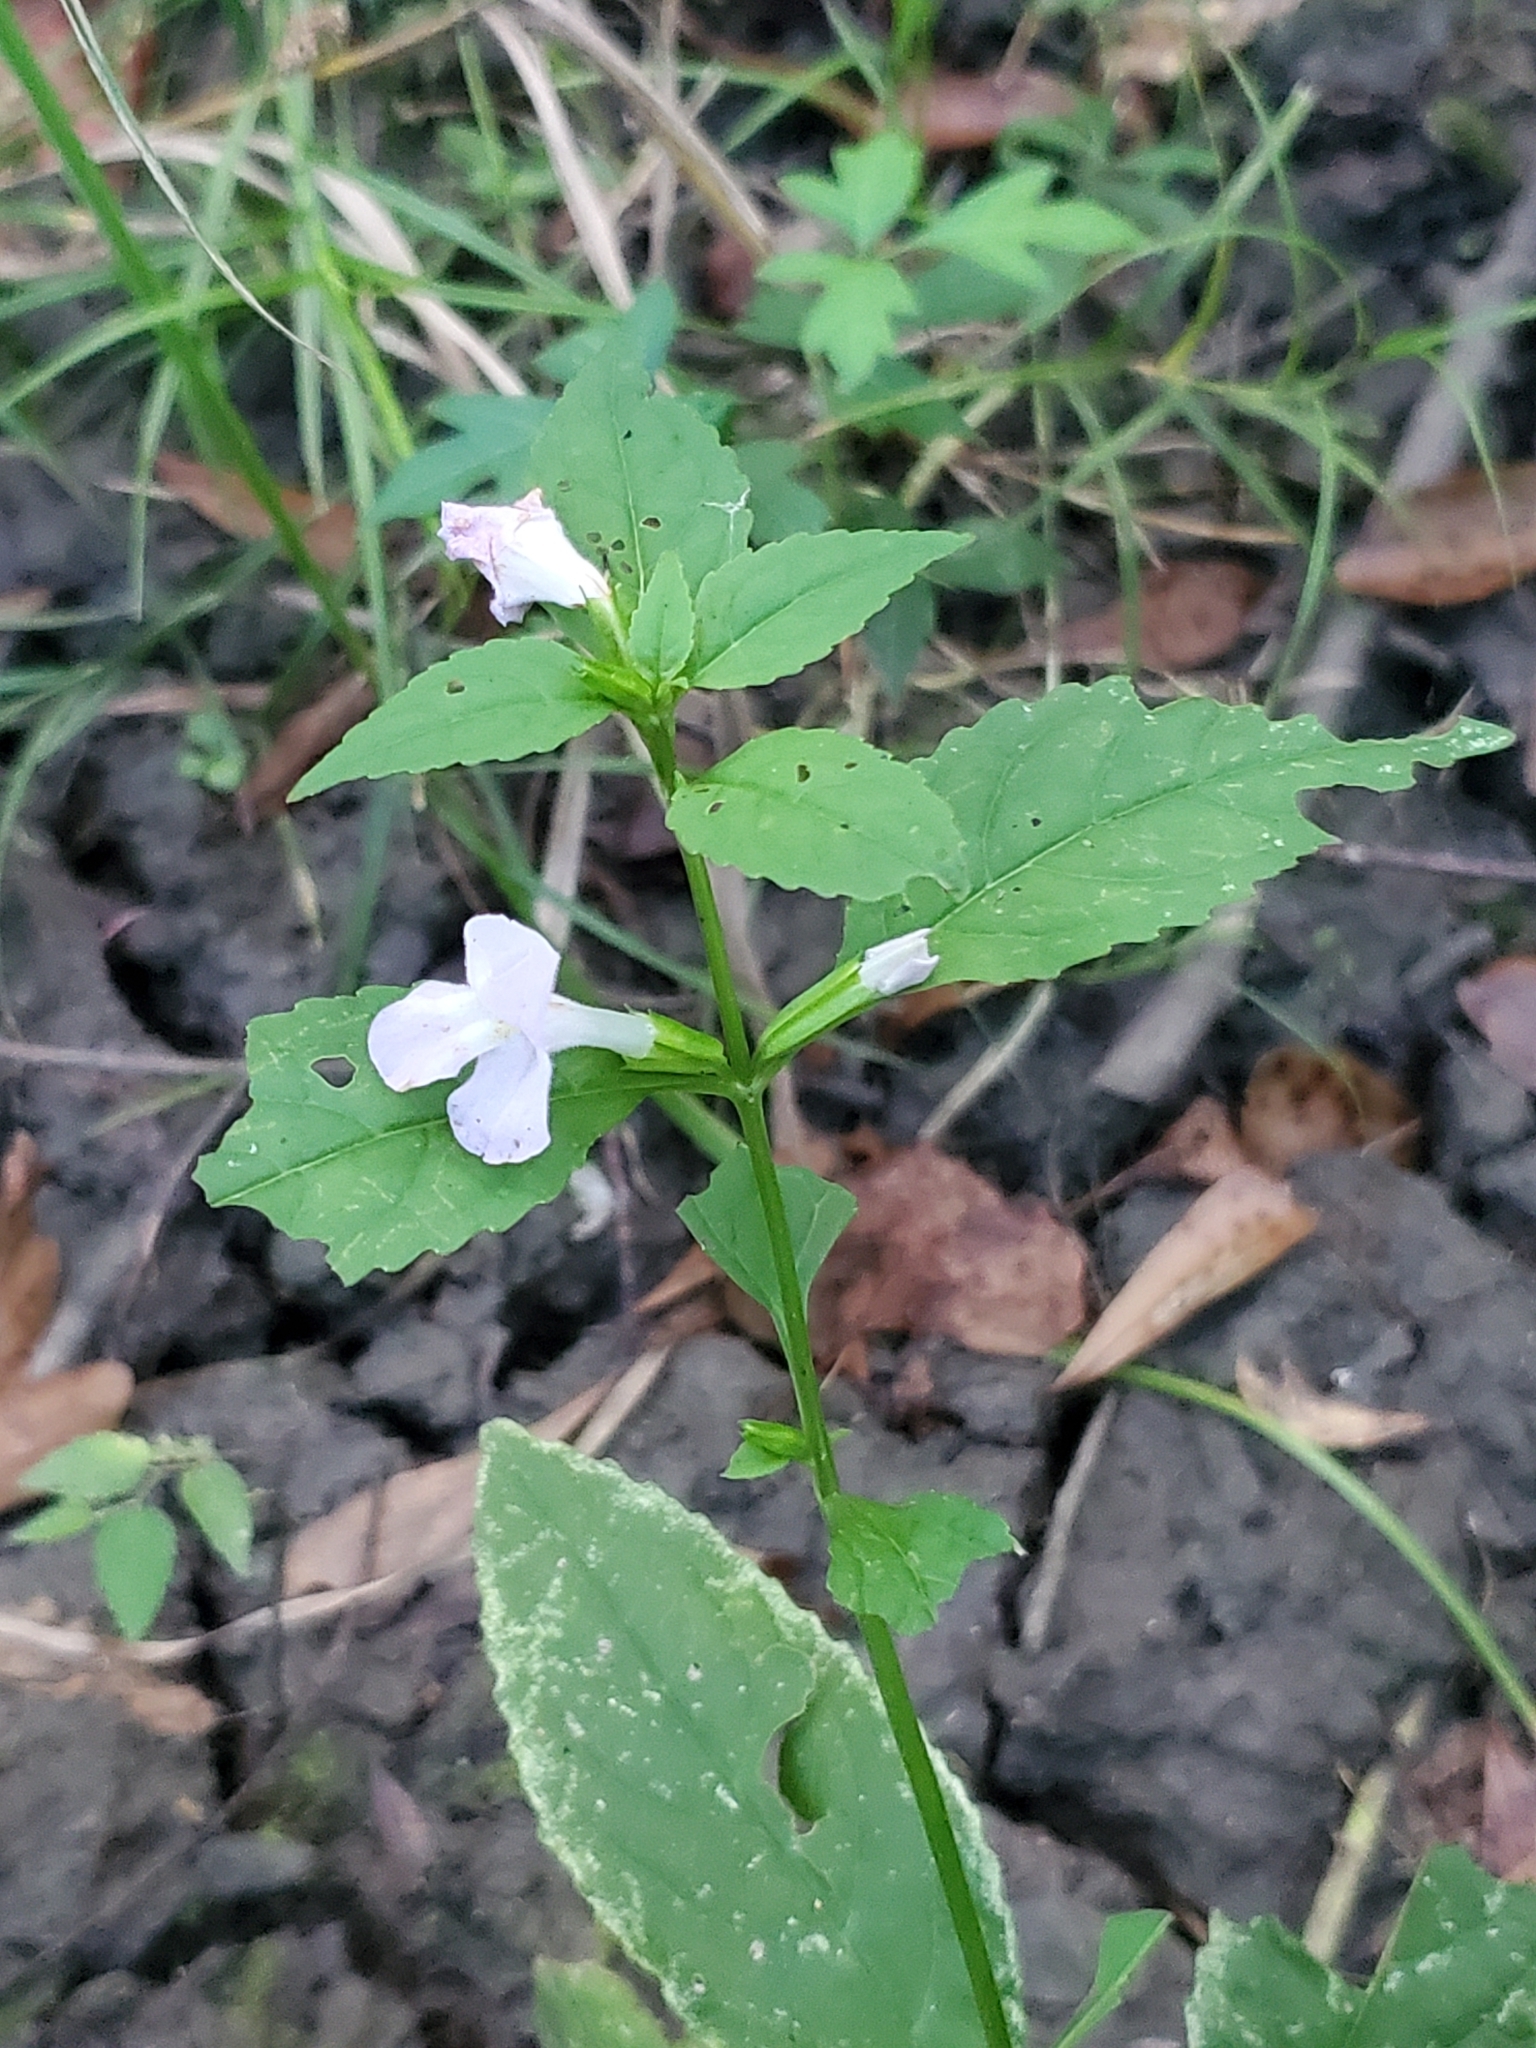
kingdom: Plantae
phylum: Tracheophyta
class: Magnoliopsida
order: Lamiales
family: Phrymaceae
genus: Mimulus
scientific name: Mimulus alatus
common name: Sharp-wing monkey-flower
